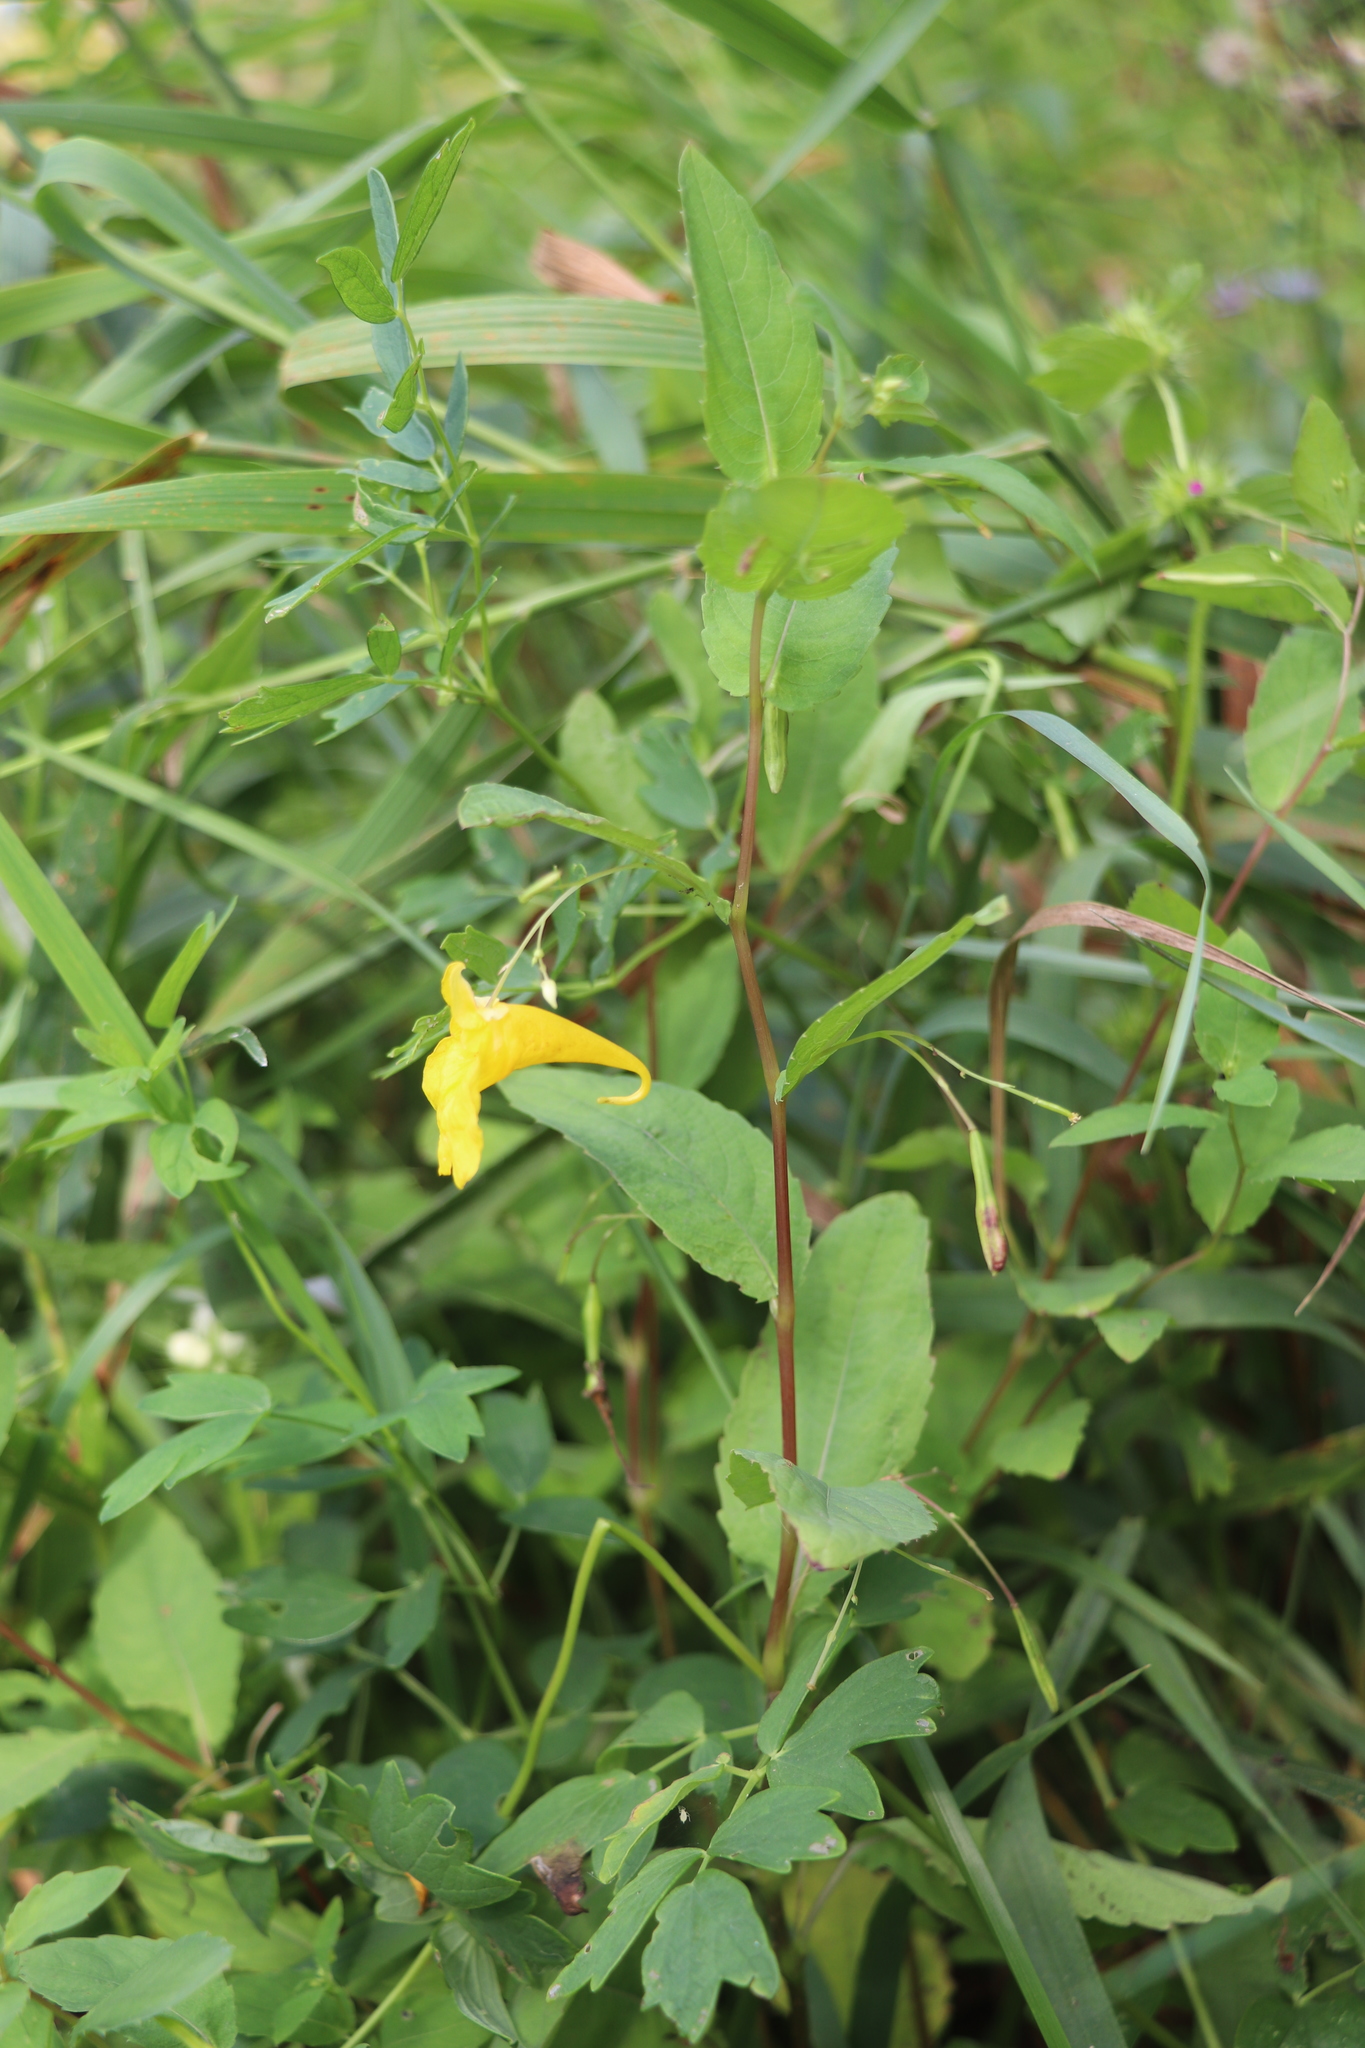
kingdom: Plantae
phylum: Tracheophyta
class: Magnoliopsida
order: Ericales
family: Balsaminaceae
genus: Impatiens
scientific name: Impatiens noli-tangere
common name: Touch-me-not balsam
